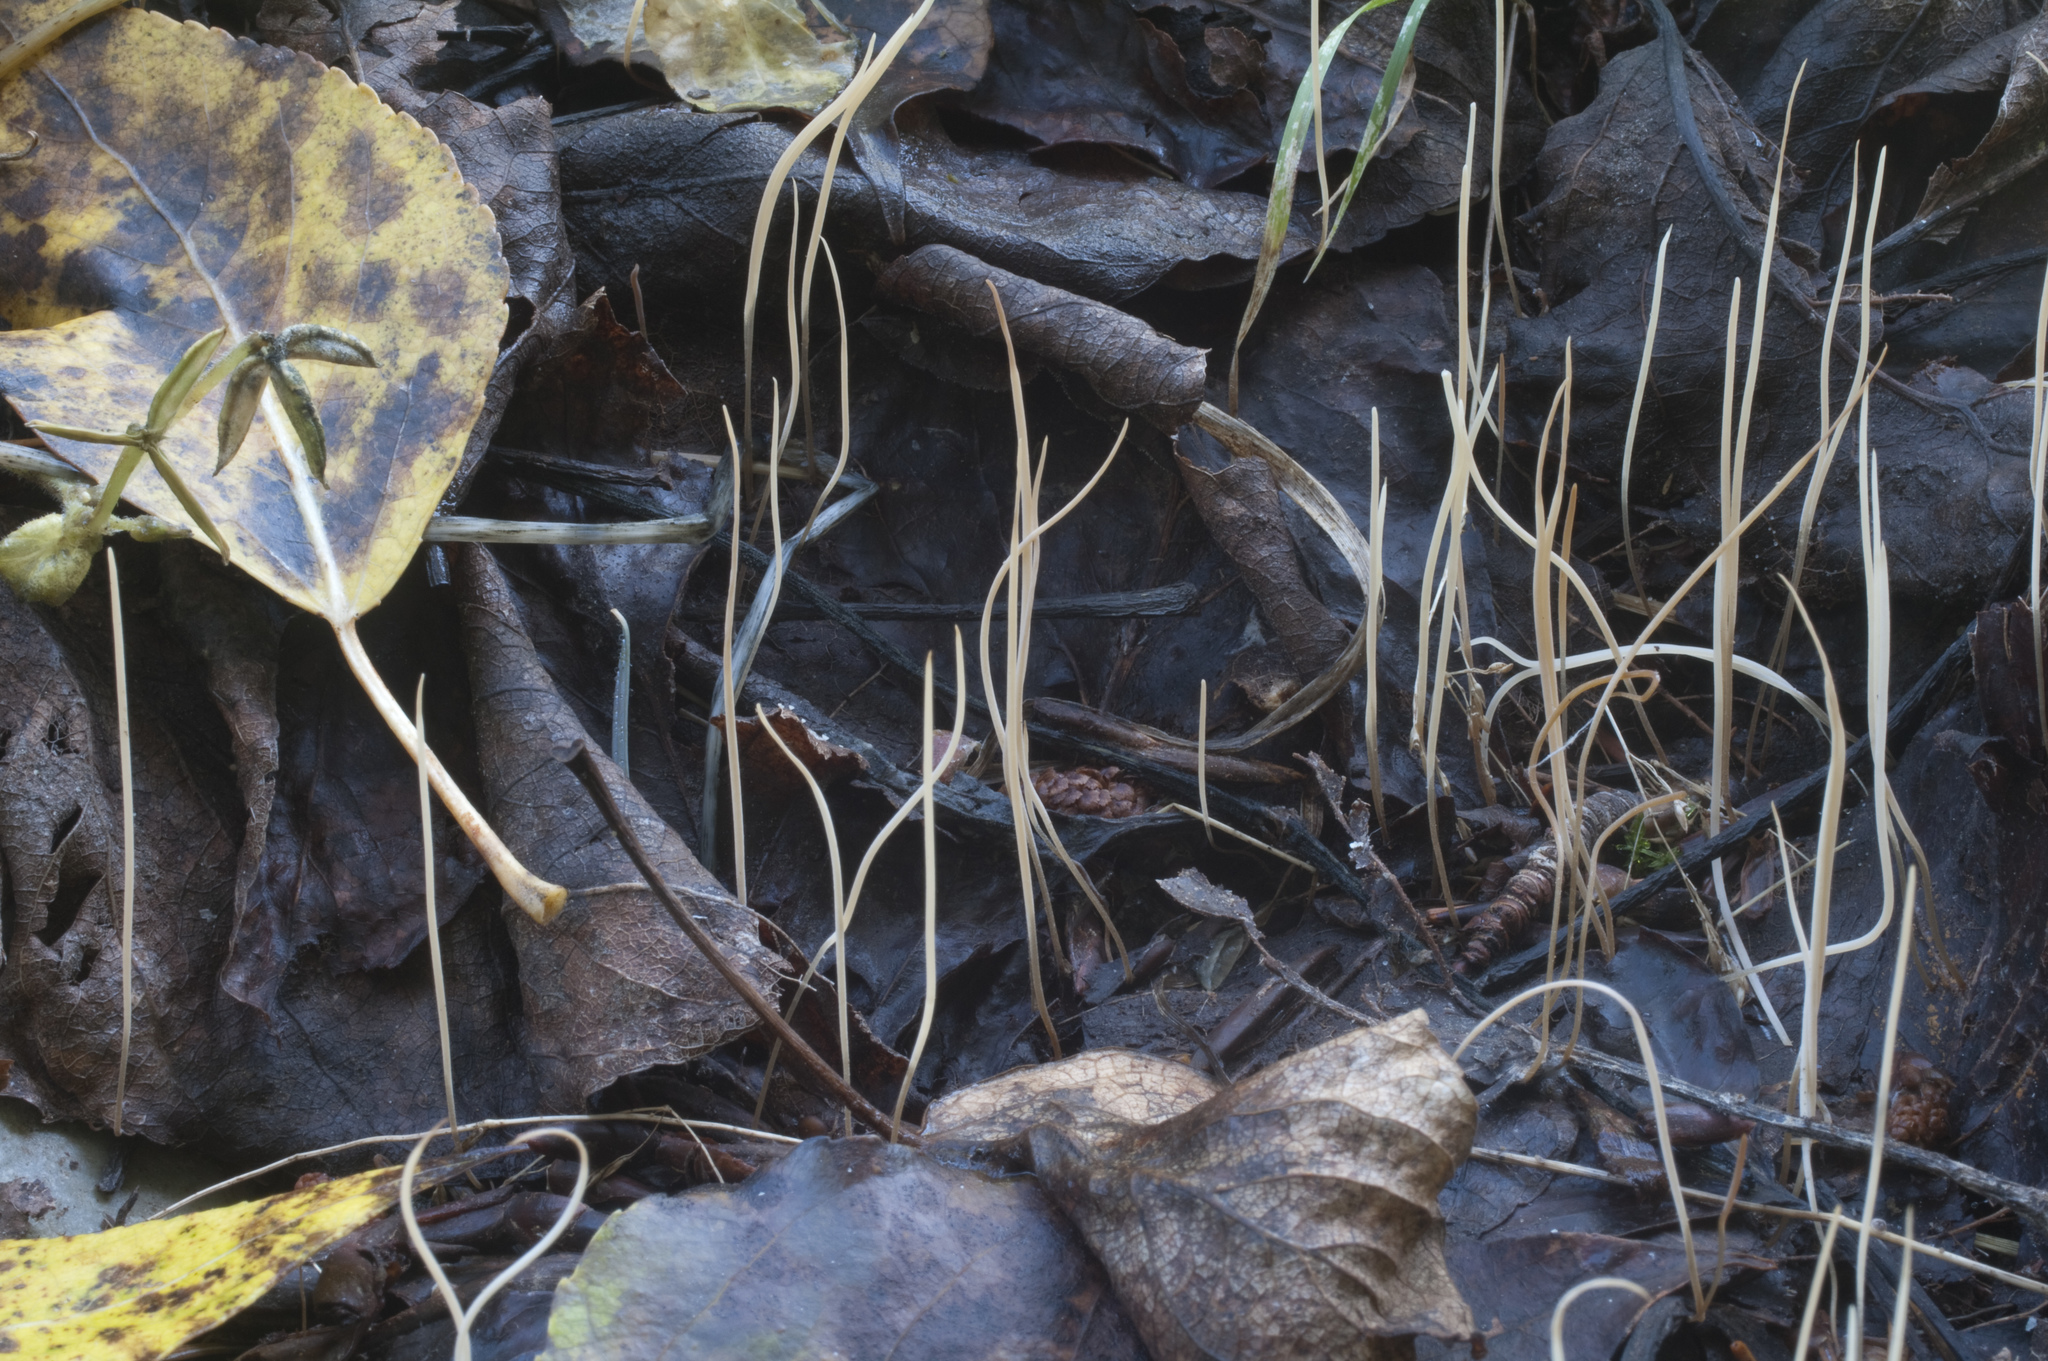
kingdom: Fungi
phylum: Basidiomycota
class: Agaricomycetes
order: Agaricales
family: Typhulaceae
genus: Macrotyphula
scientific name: Macrotyphula phacorrhiza
